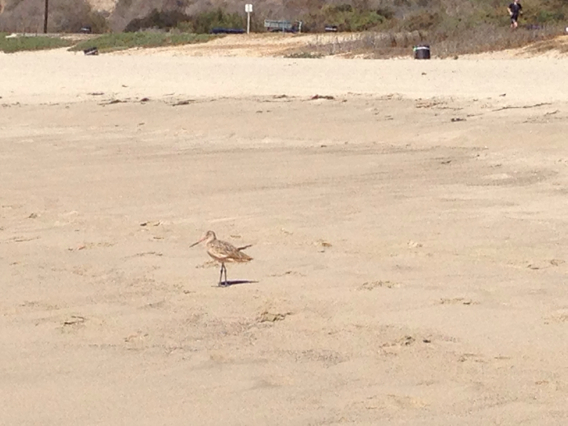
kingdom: Animalia
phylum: Chordata
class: Aves
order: Charadriiformes
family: Scolopacidae
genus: Limosa
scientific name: Limosa fedoa
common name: Marbled godwit
